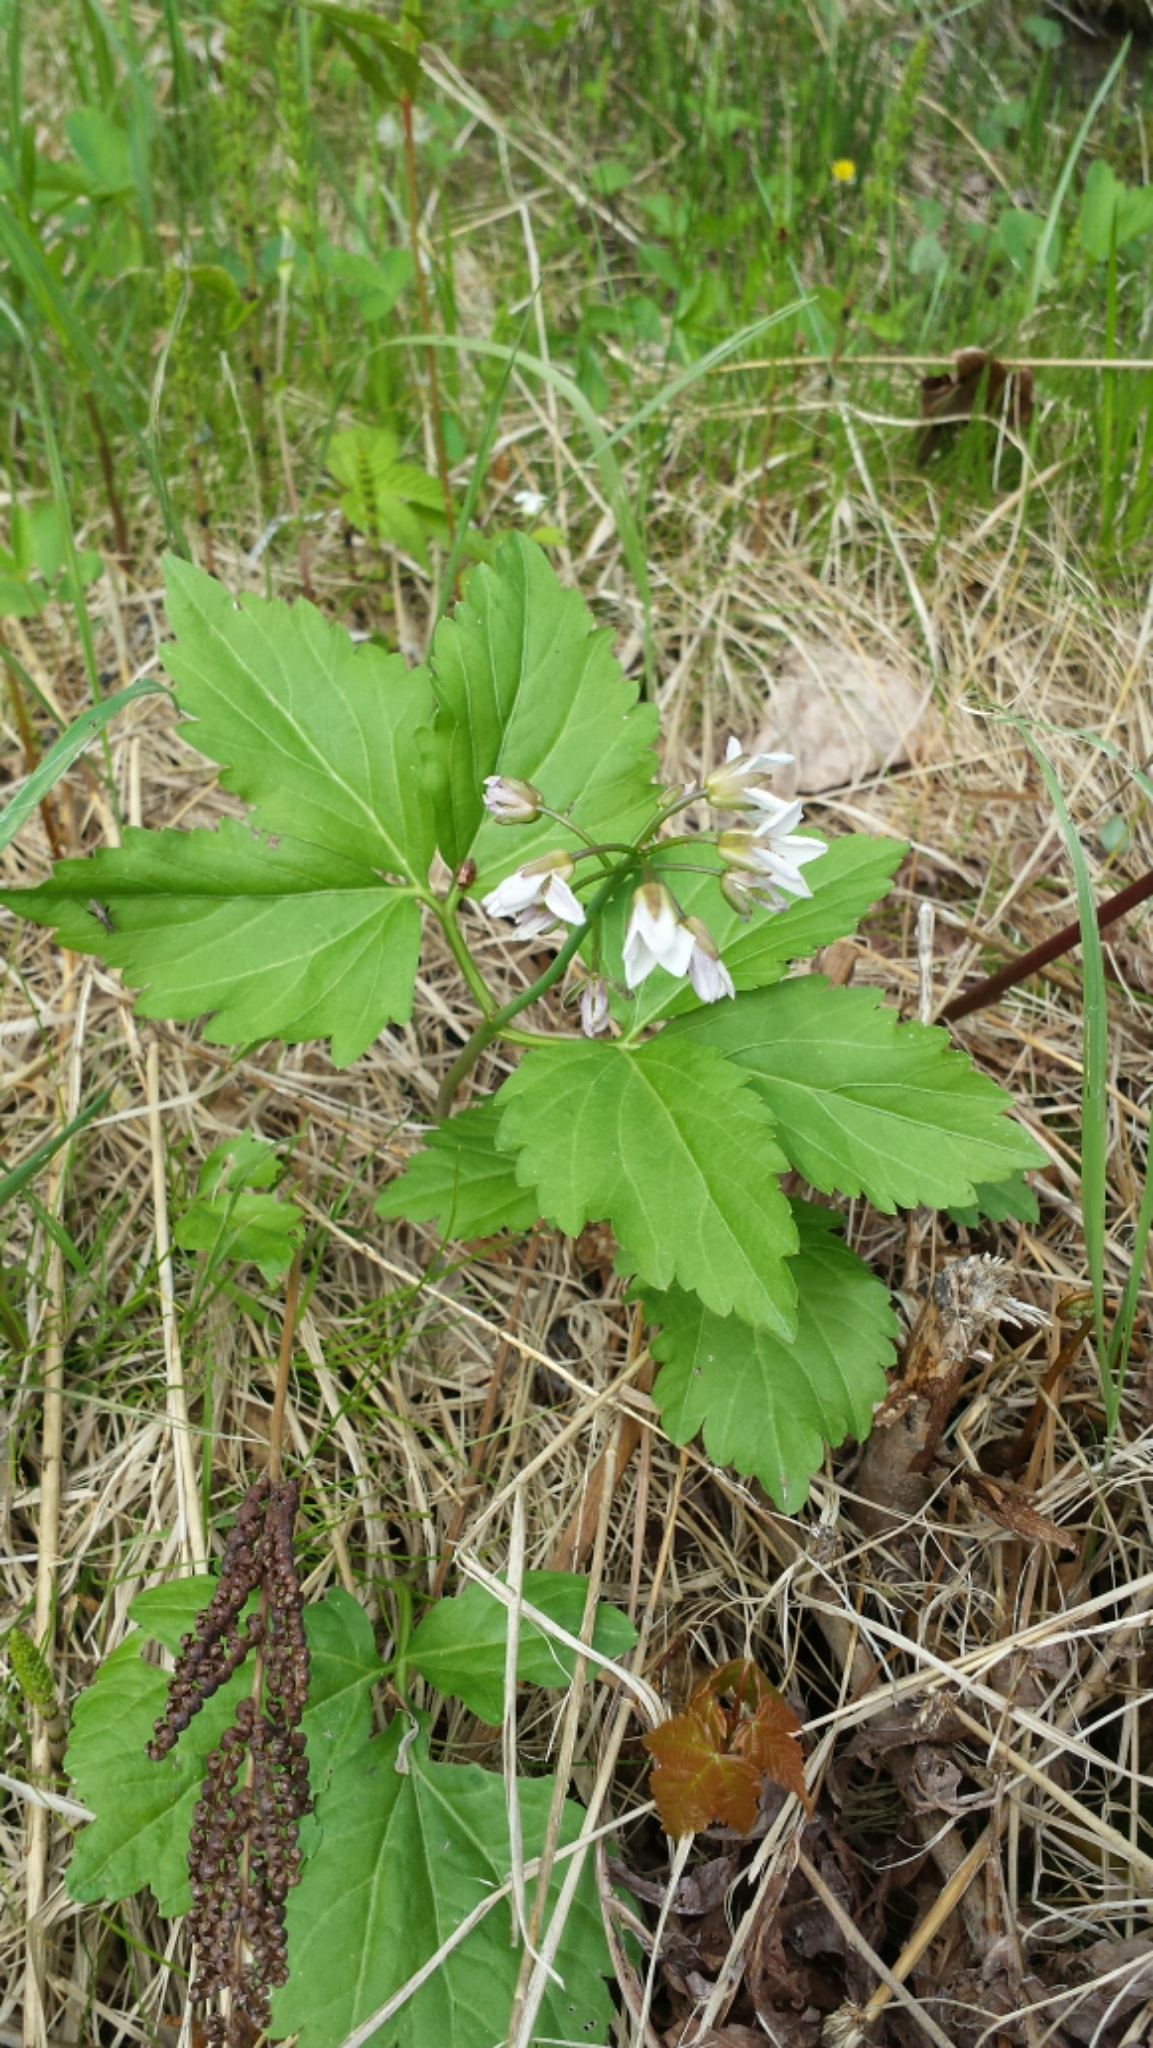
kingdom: Plantae
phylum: Tracheophyta
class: Magnoliopsida
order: Brassicales
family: Brassicaceae
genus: Cardamine
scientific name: Cardamine diphylla
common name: Broad-leaved toothwort
